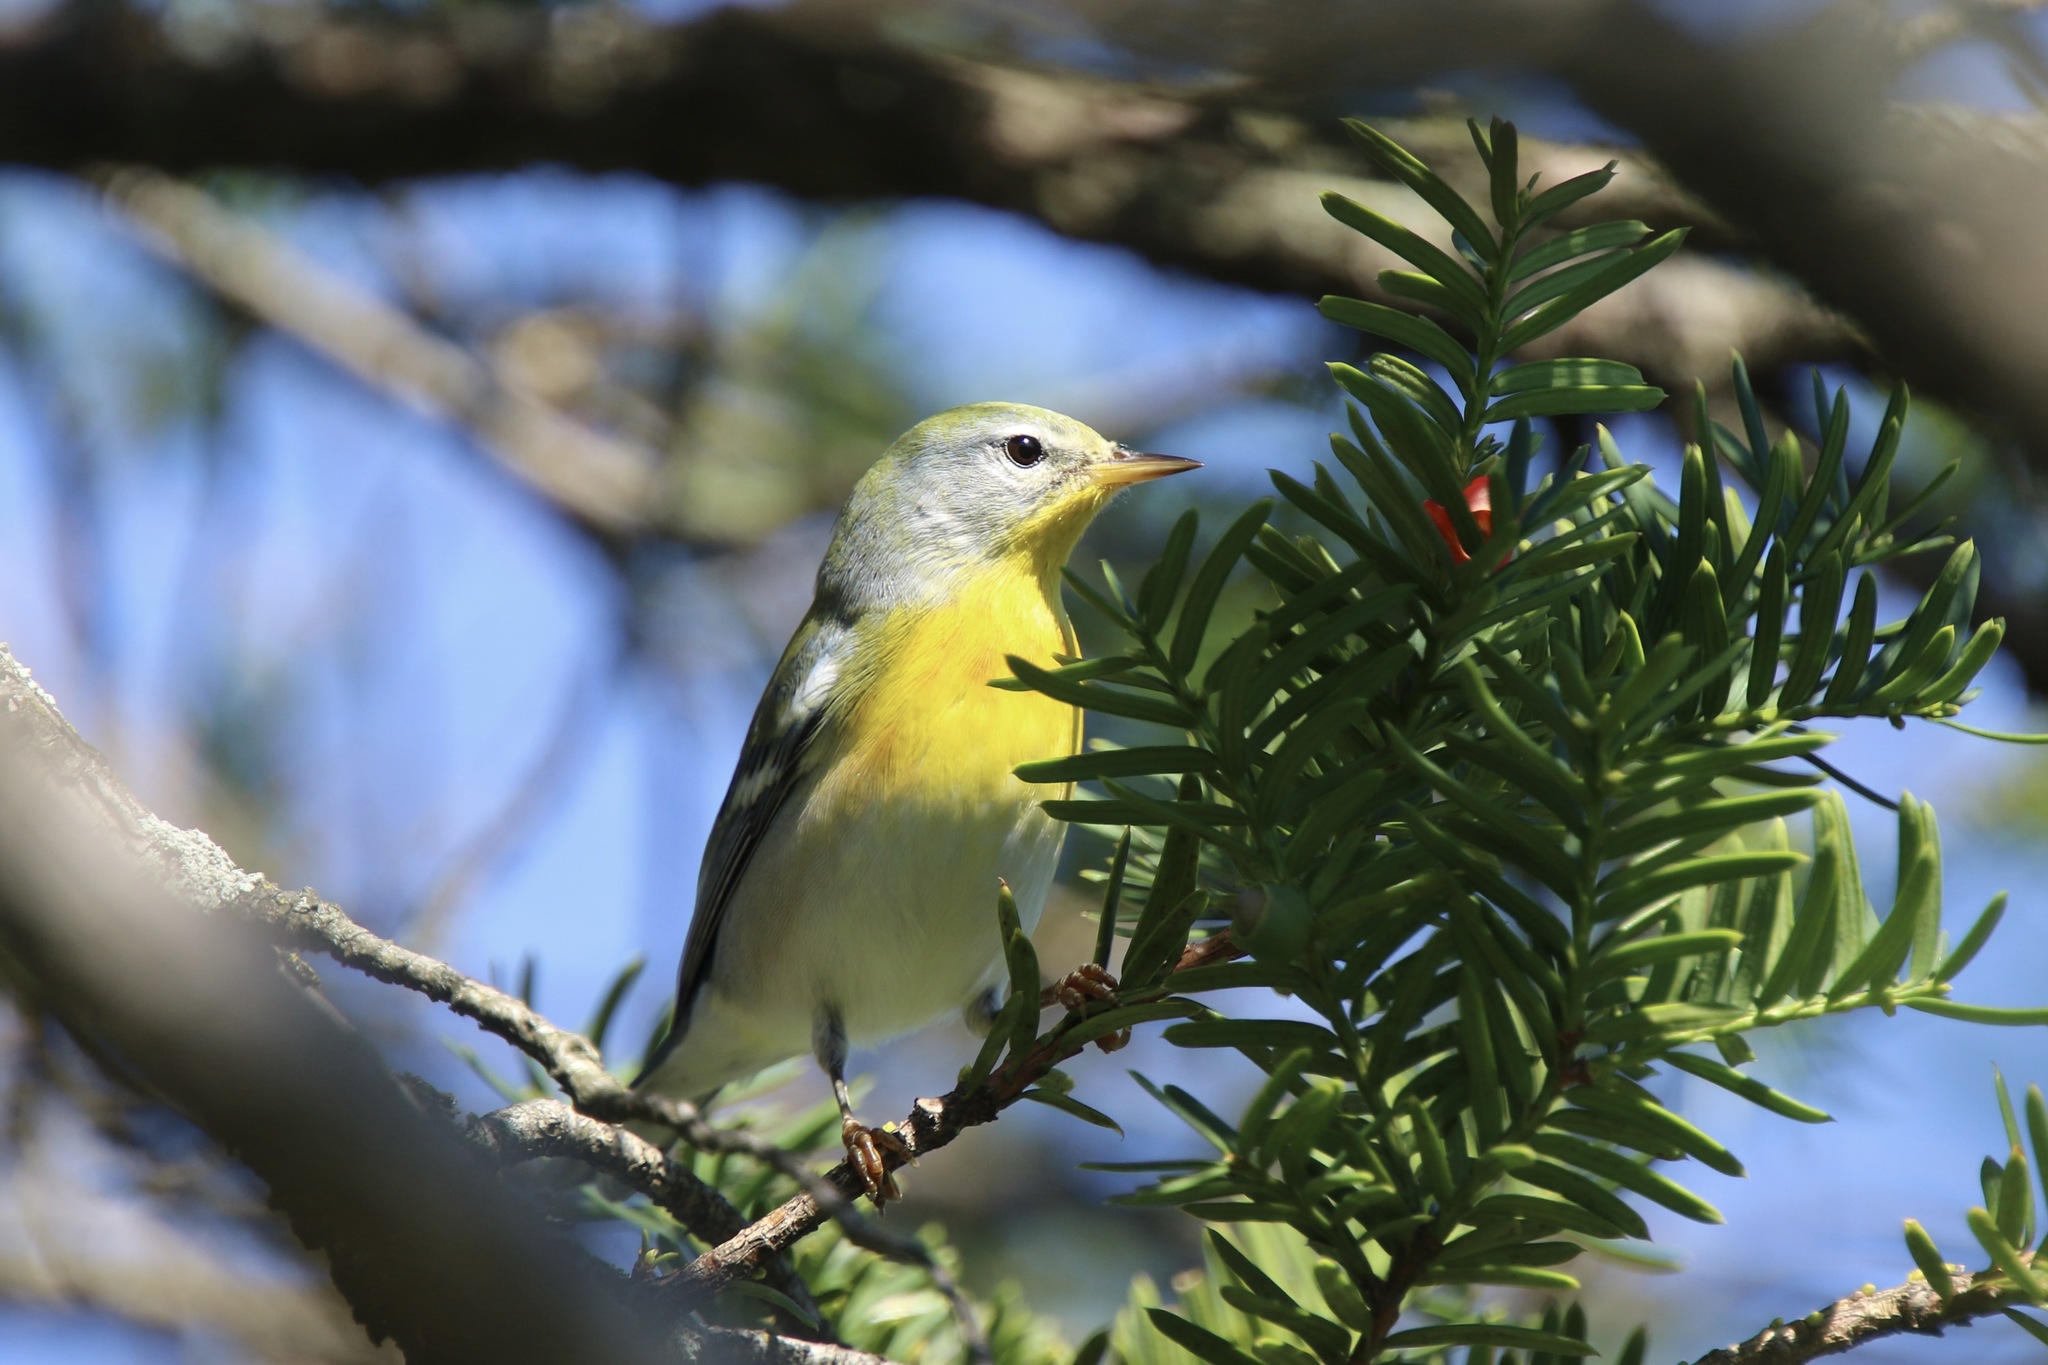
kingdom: Animalia
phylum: Chordata
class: Aves
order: Passeriformes
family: Parulidae
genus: Setophaga
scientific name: Setophaga americana
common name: Northern parula
